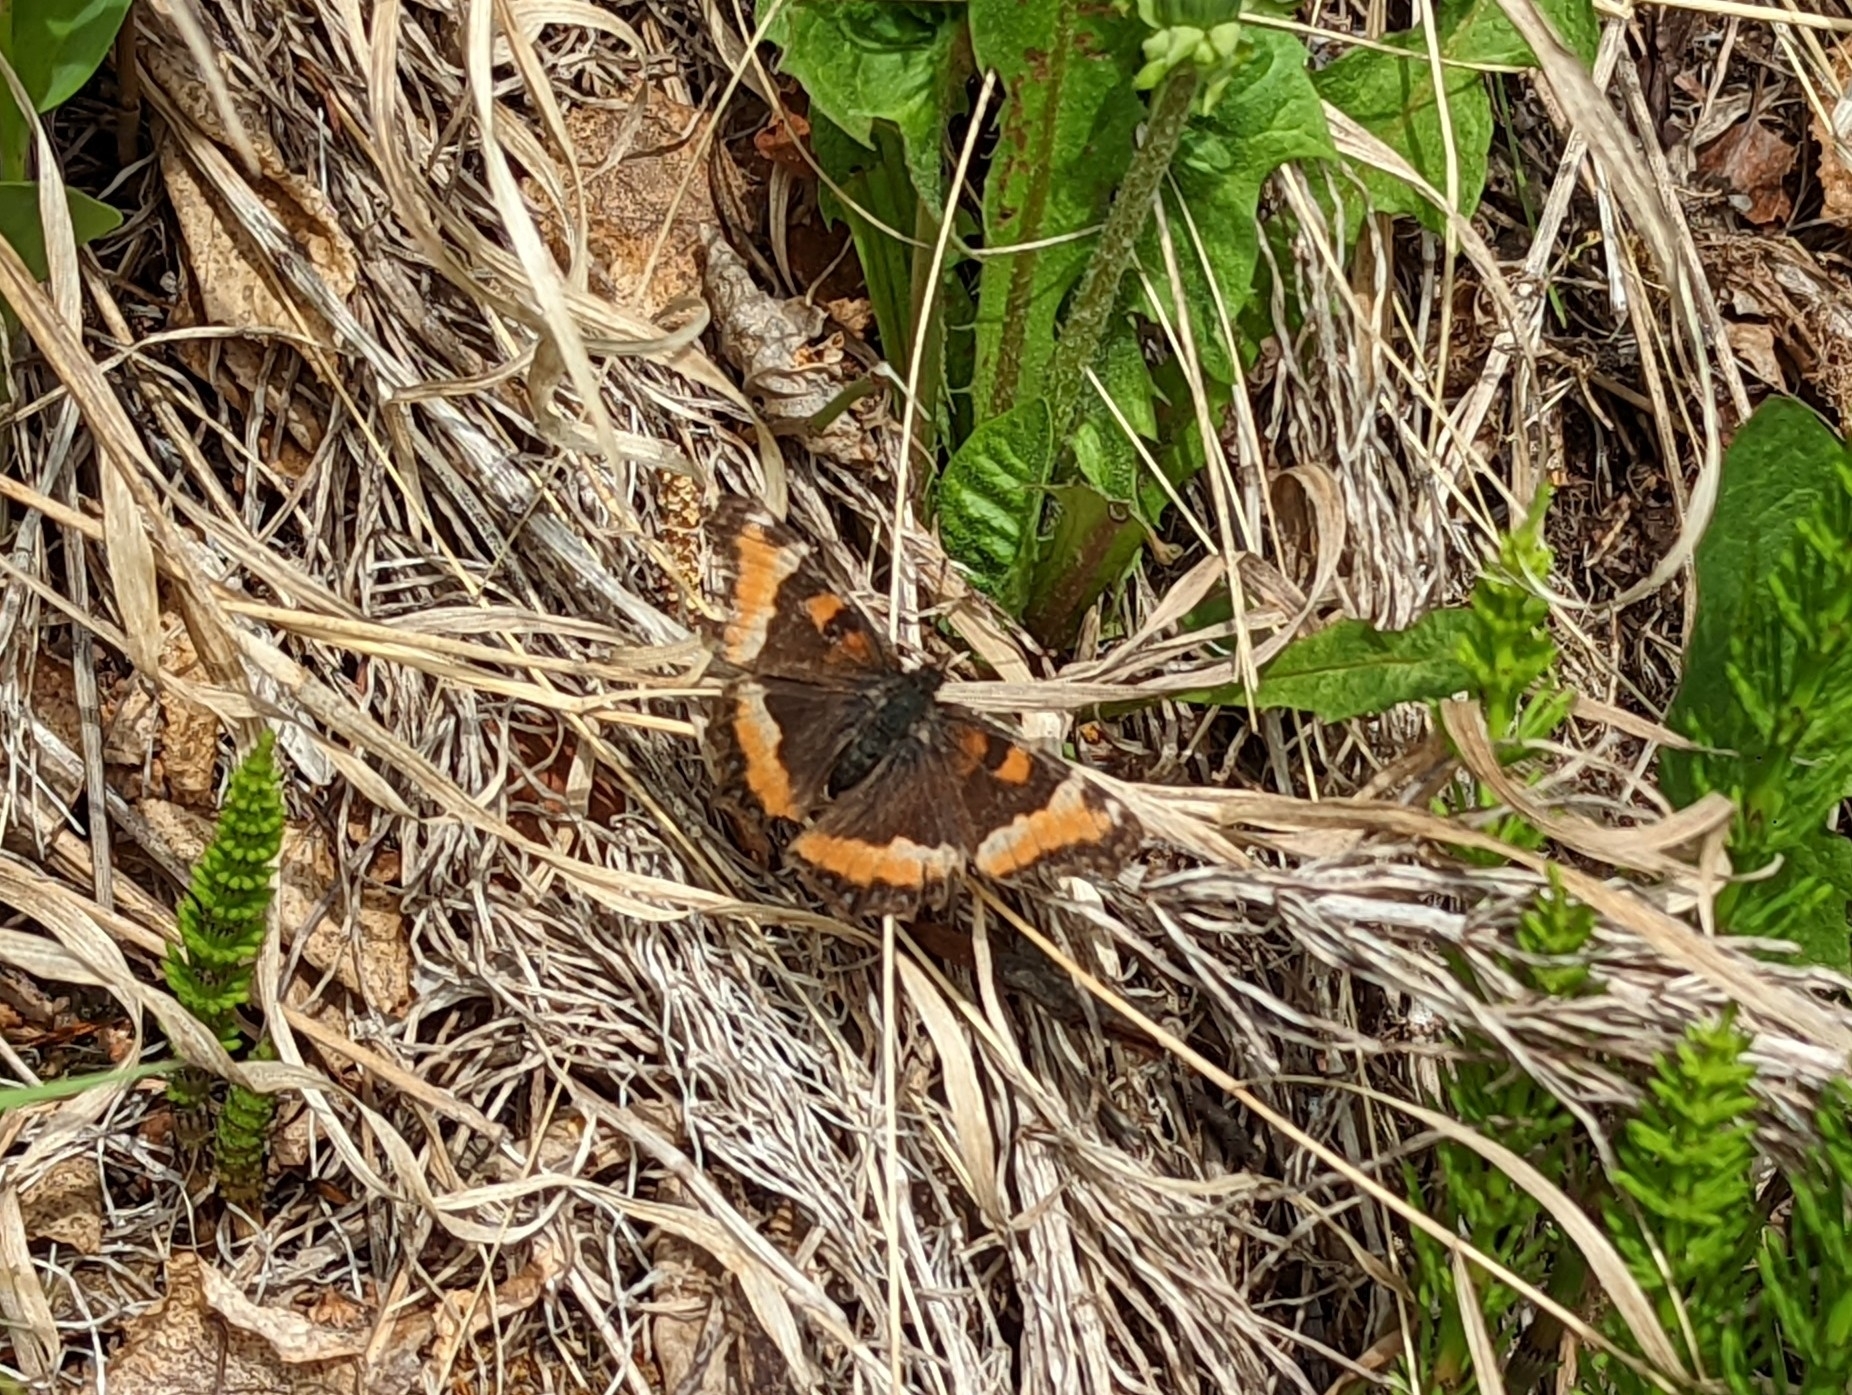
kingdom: Animalia
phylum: Arthropoda
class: Insecta
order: Lepidoptera
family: Nymphalidae
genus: Aglais
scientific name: Aglais milberti
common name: Milbert's tortoiseshell
